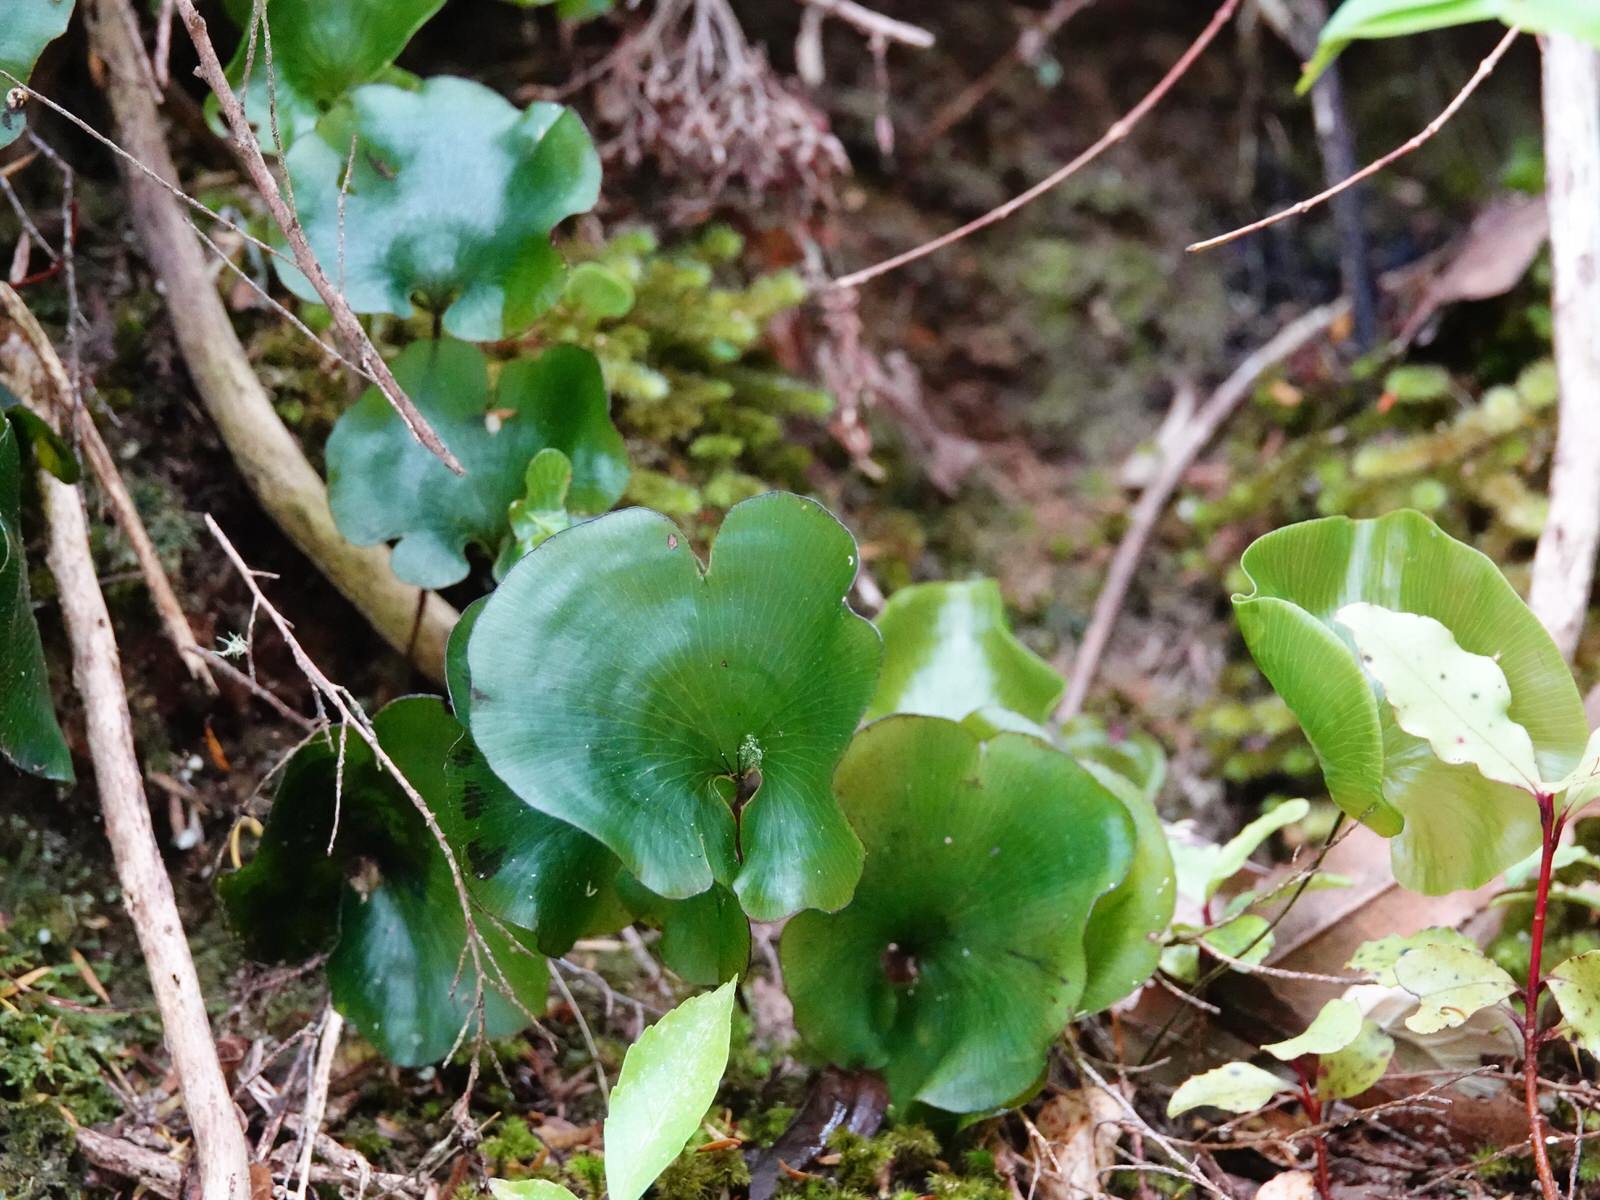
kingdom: Plantae
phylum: Tracheophyta
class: Polypodiopsida
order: Hymenophyllales
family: Hymenophyllaceae
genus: Hymenophyllum
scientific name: Hymenophyllum nephrophyllum
